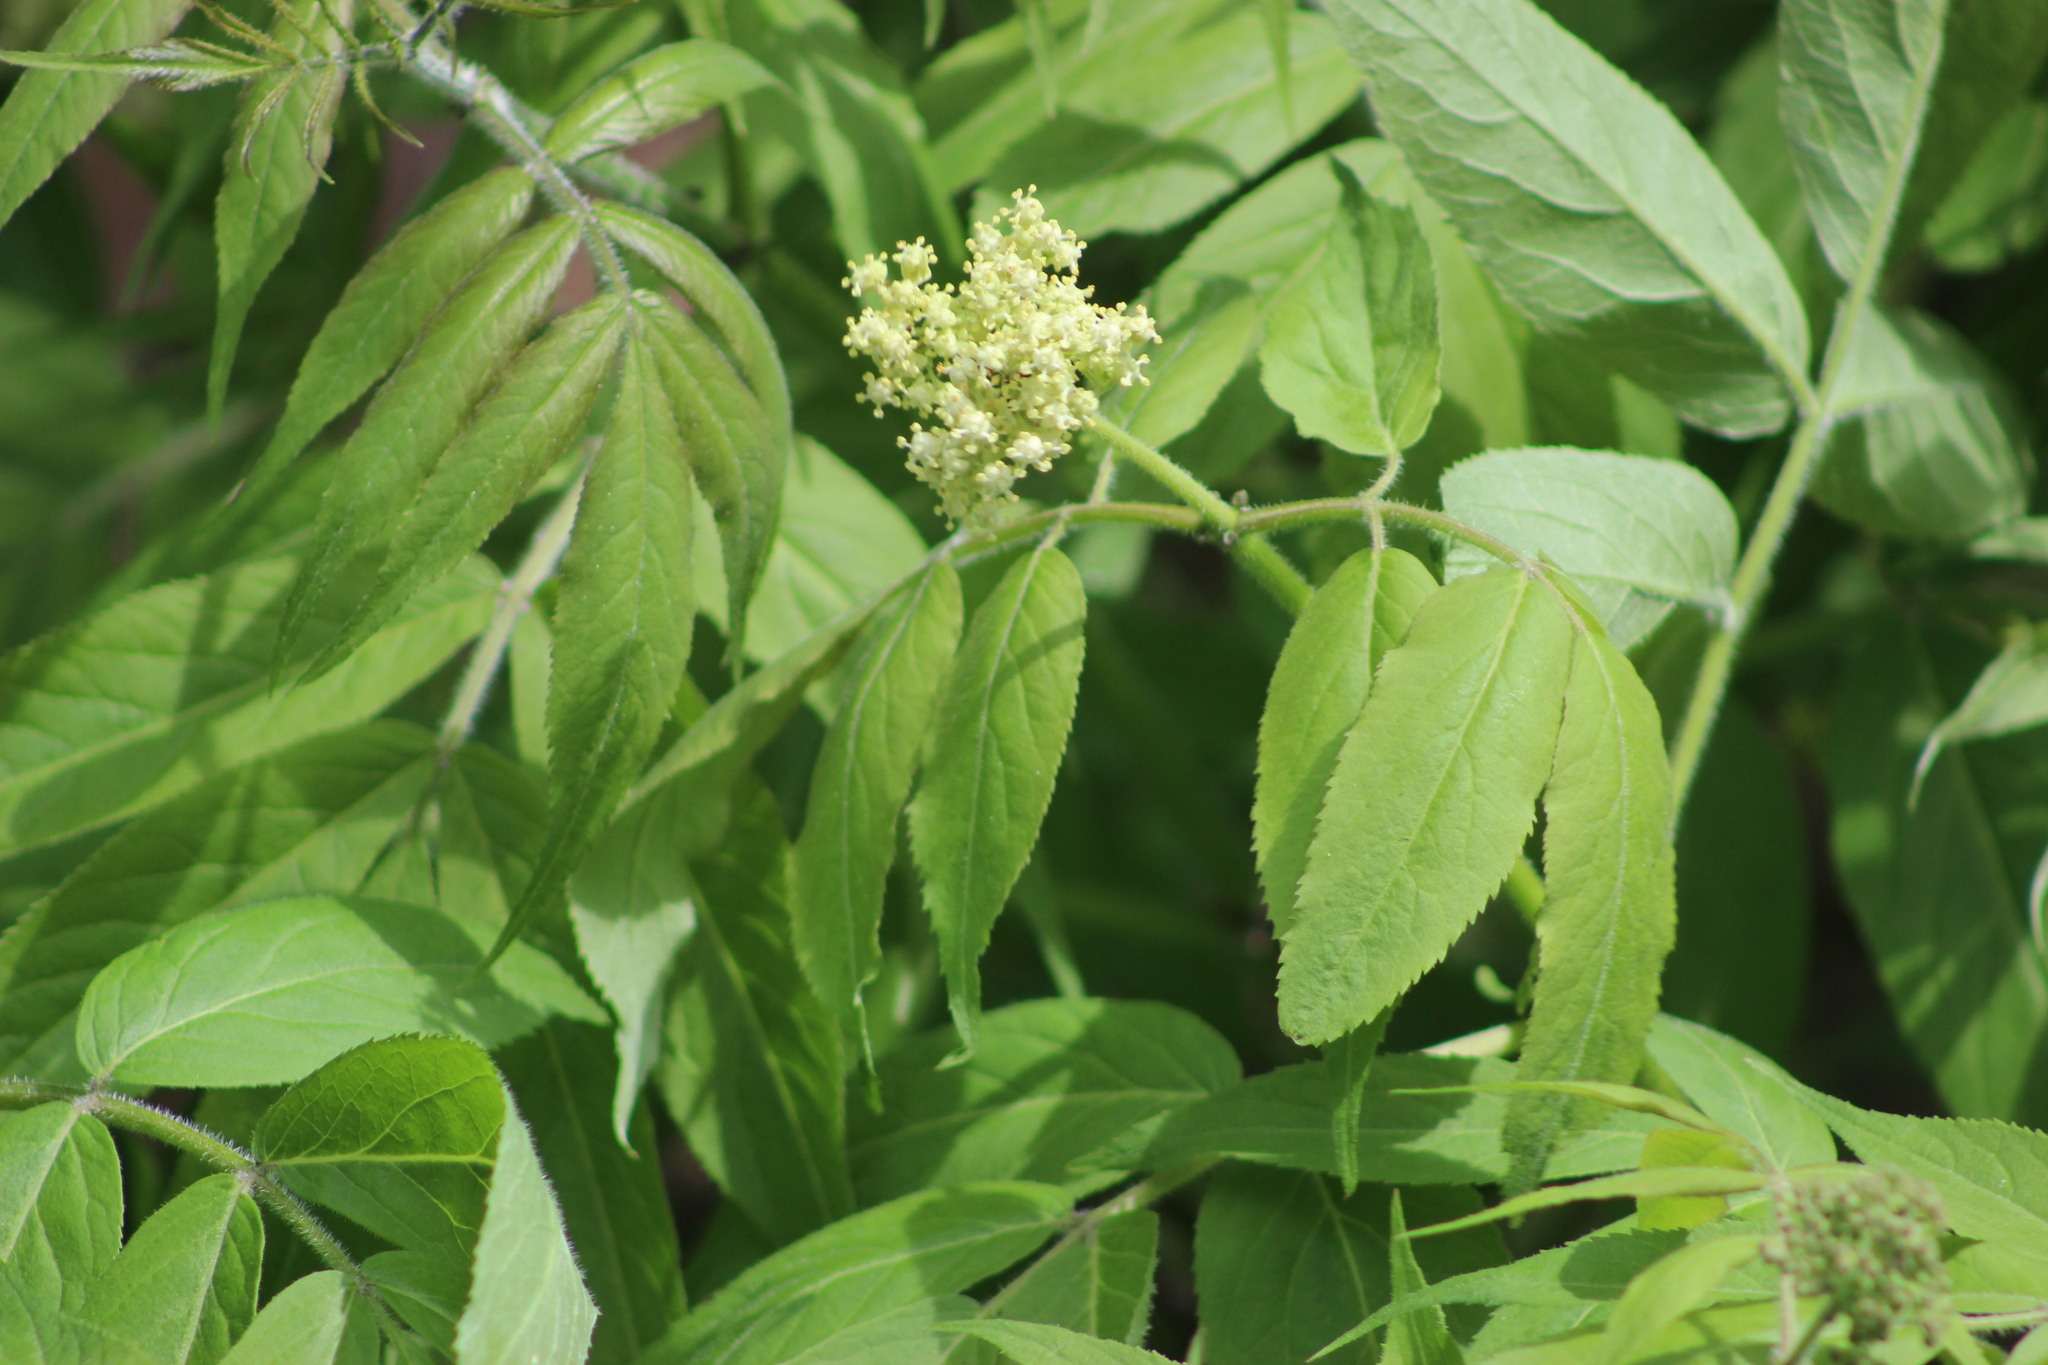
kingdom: Plantae
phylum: Tracheophyta
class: Magnoliopsida
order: Dipsacales
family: Viburnaceae
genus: Sambucus
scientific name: Sambucus sibirica
